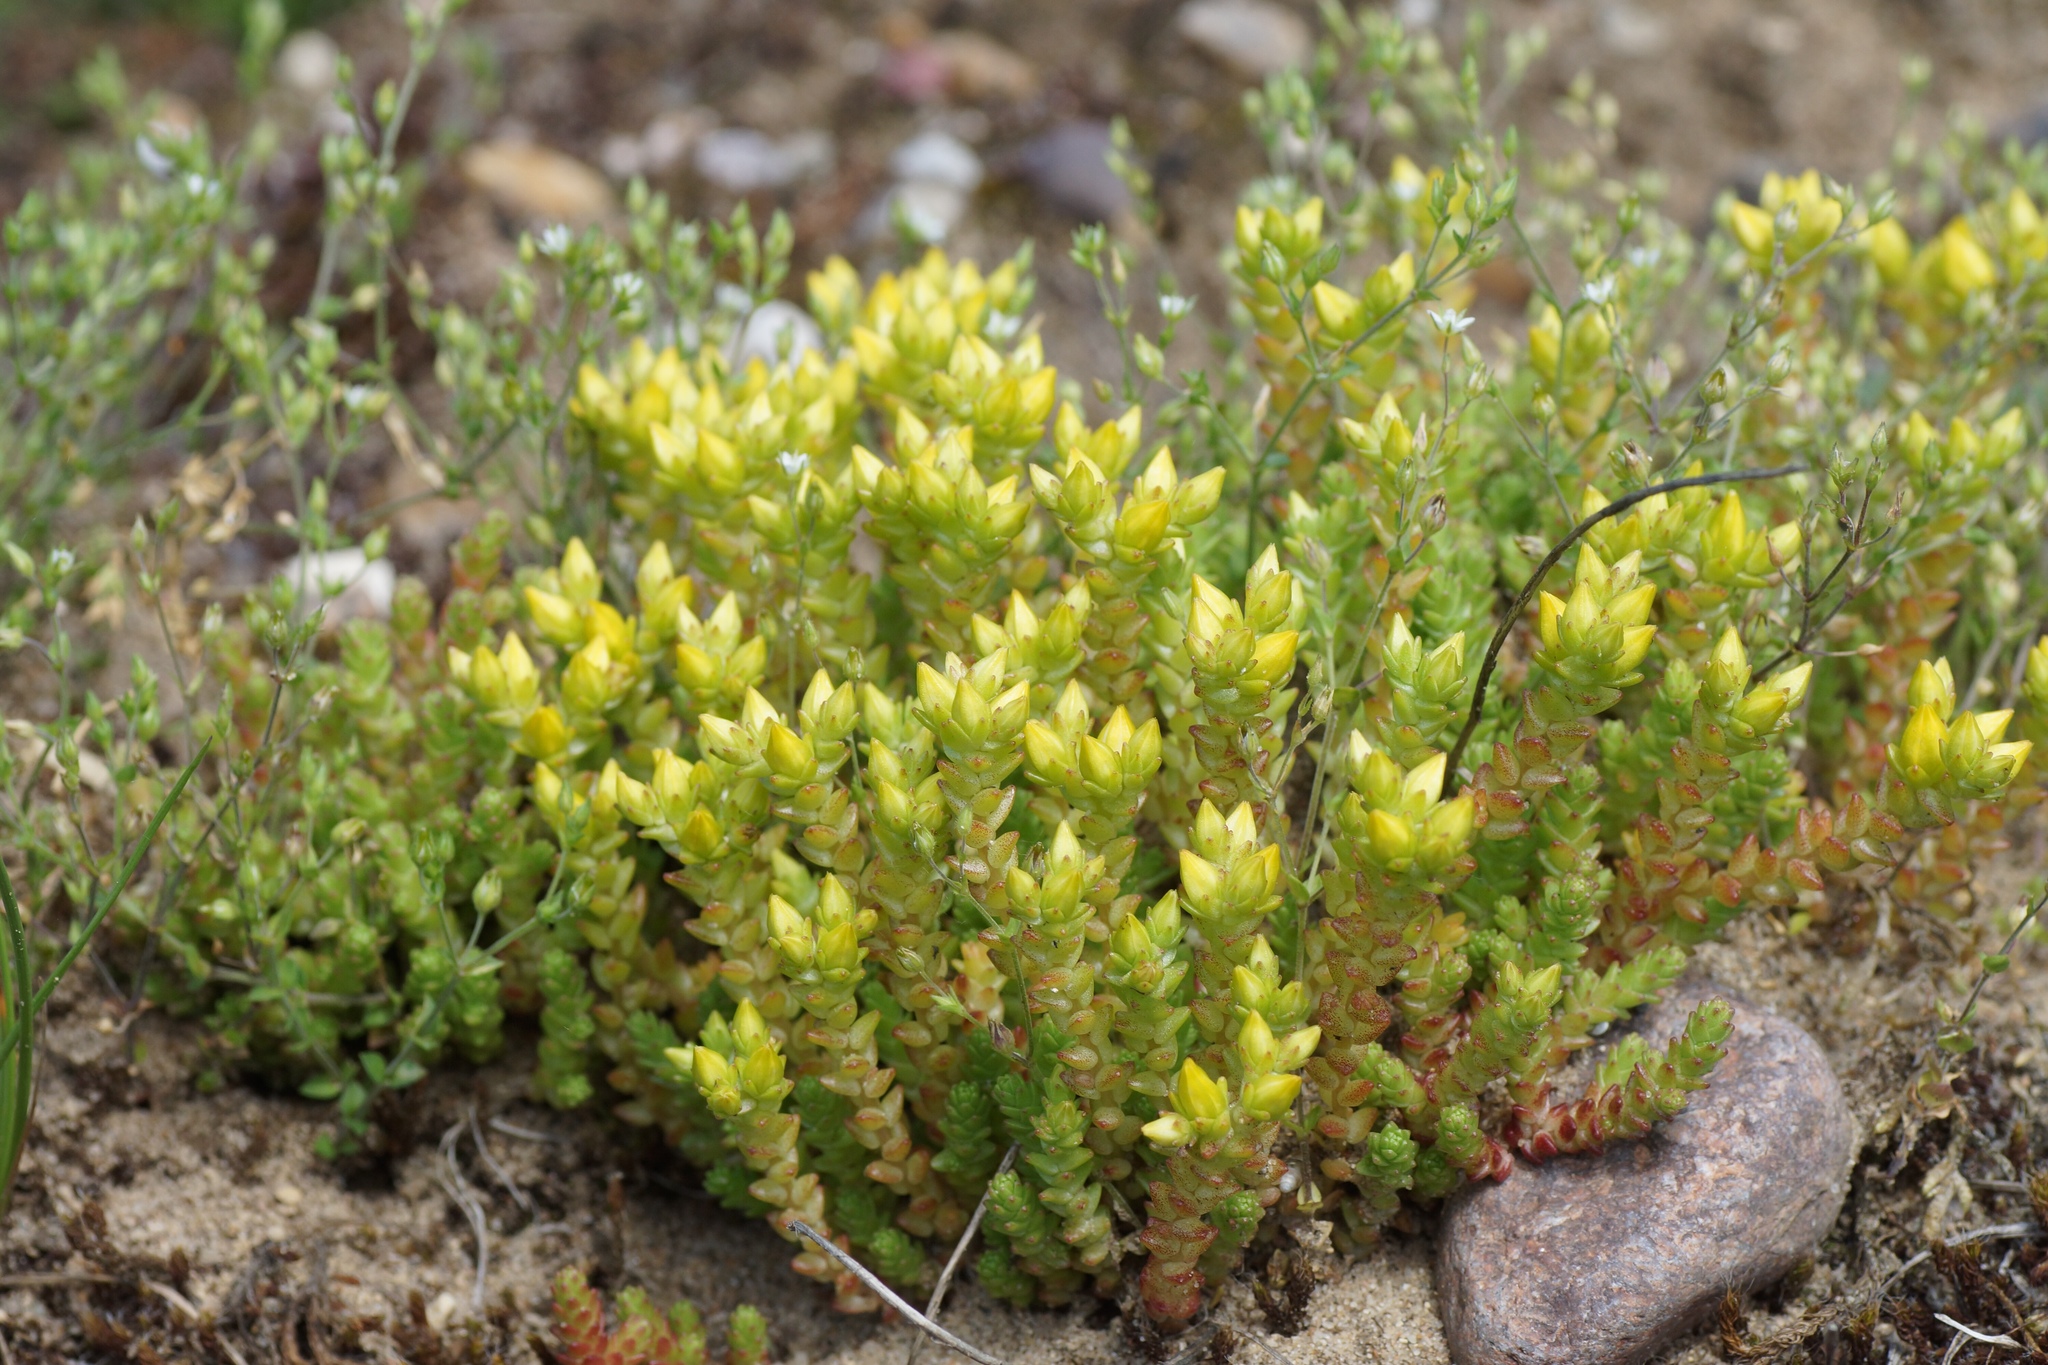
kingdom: Plantae
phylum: Tracheophyta
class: Magnoliopsida
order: Saxifragales
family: Crassulaceae
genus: Sedum
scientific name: Sedum acre
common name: Biting stonecrop
